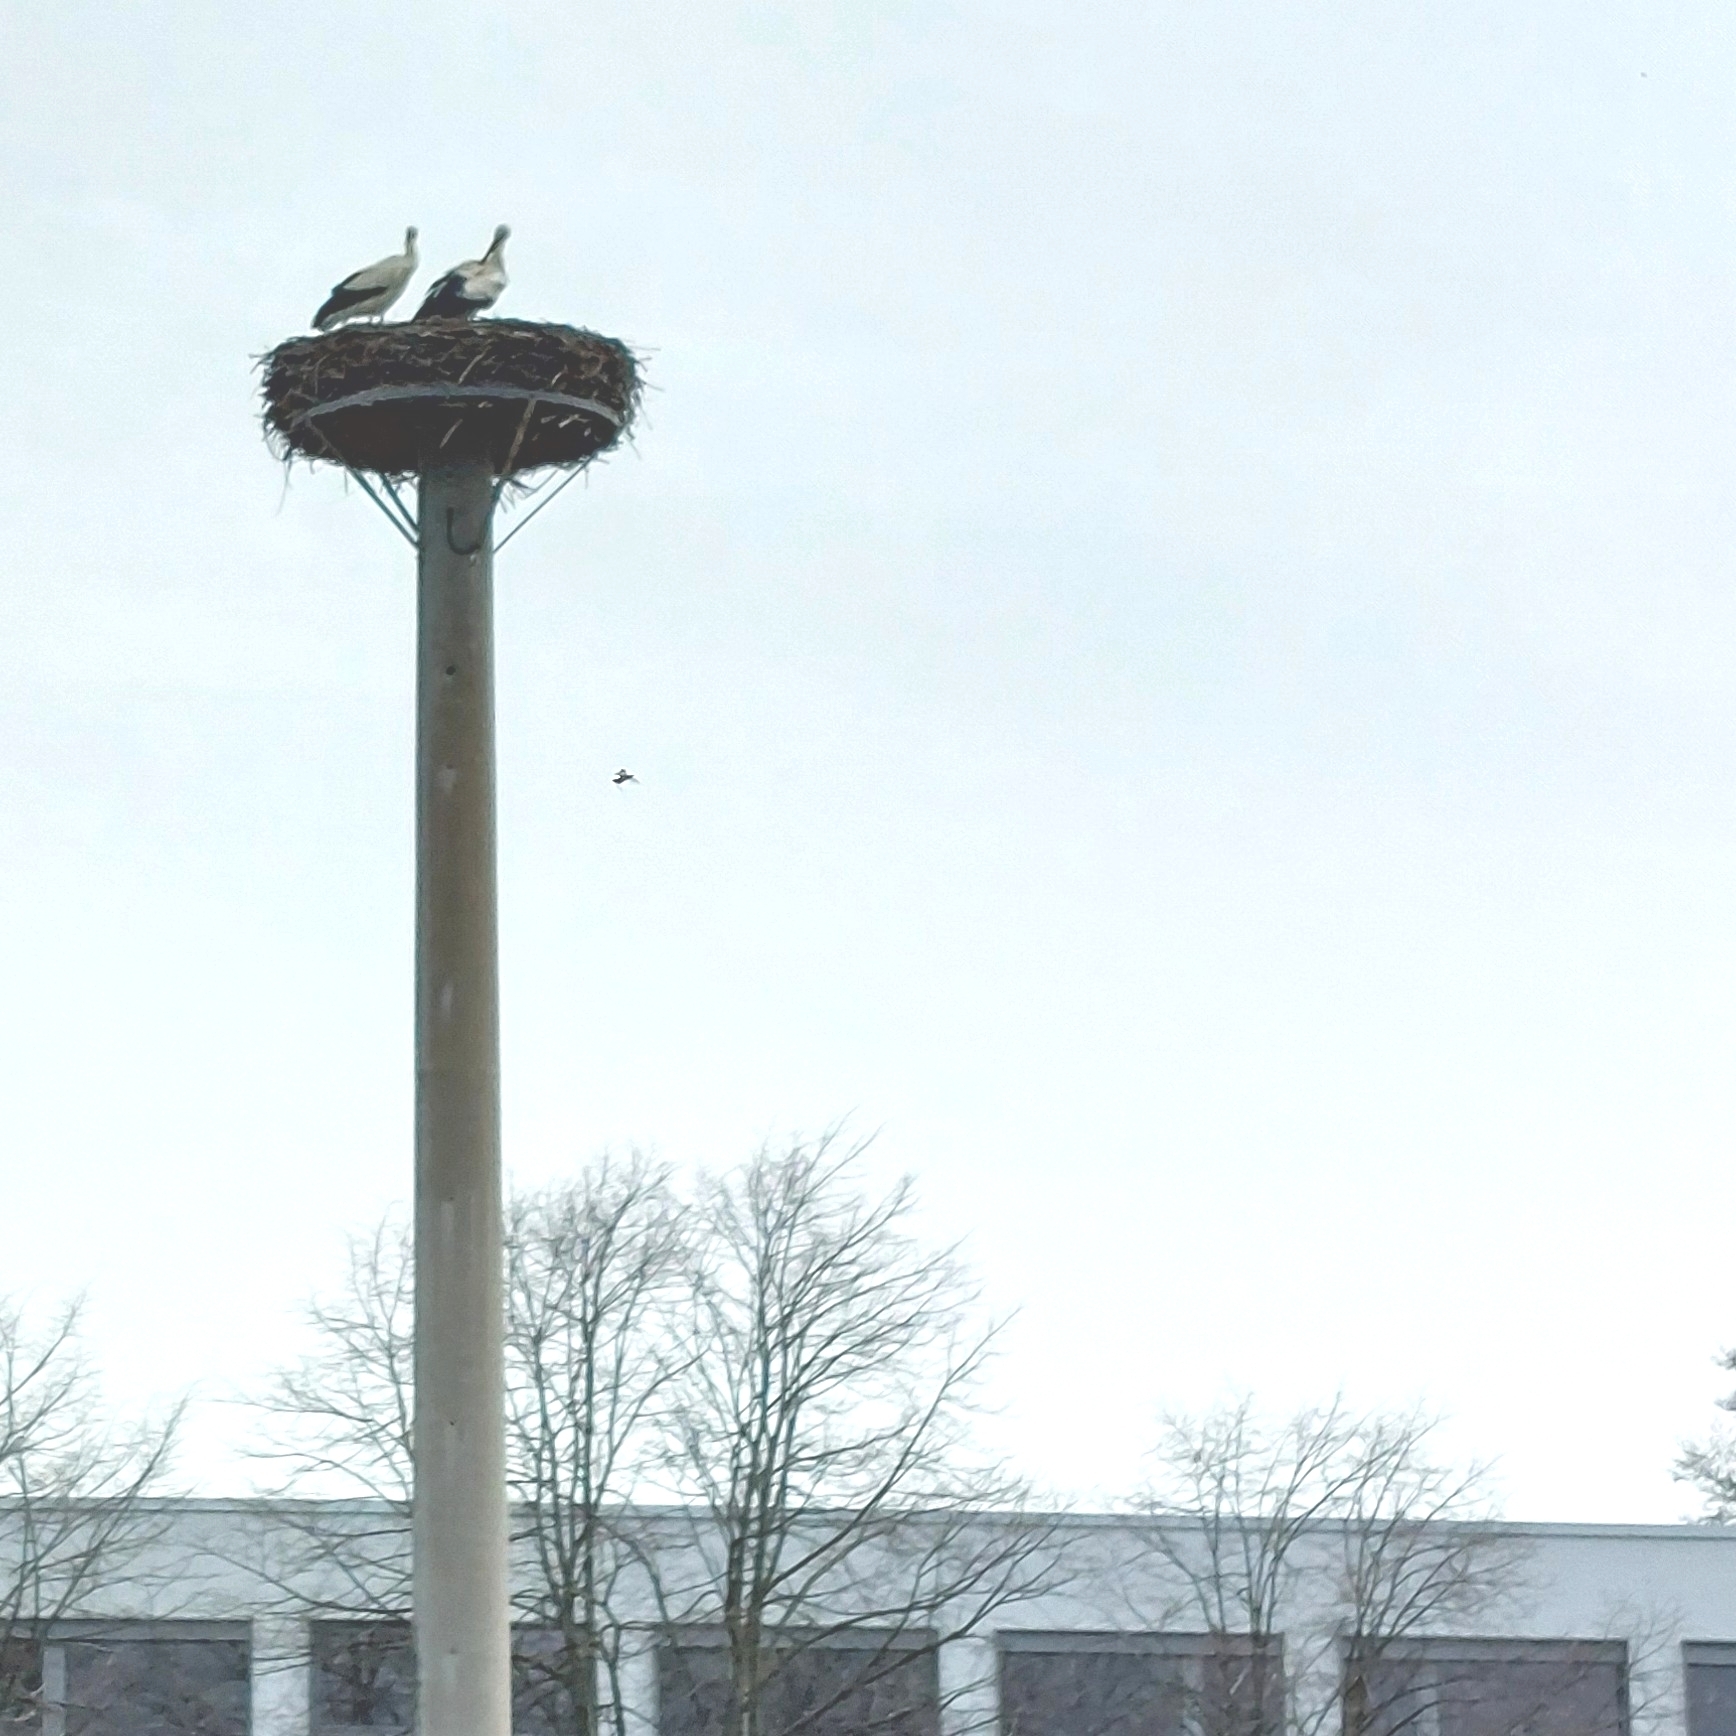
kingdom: Animalia
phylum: Chordata
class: Aves
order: Ciconiiformes
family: Ciconiidae
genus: Ciconia
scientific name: Ciconia ciconia
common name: White stork
